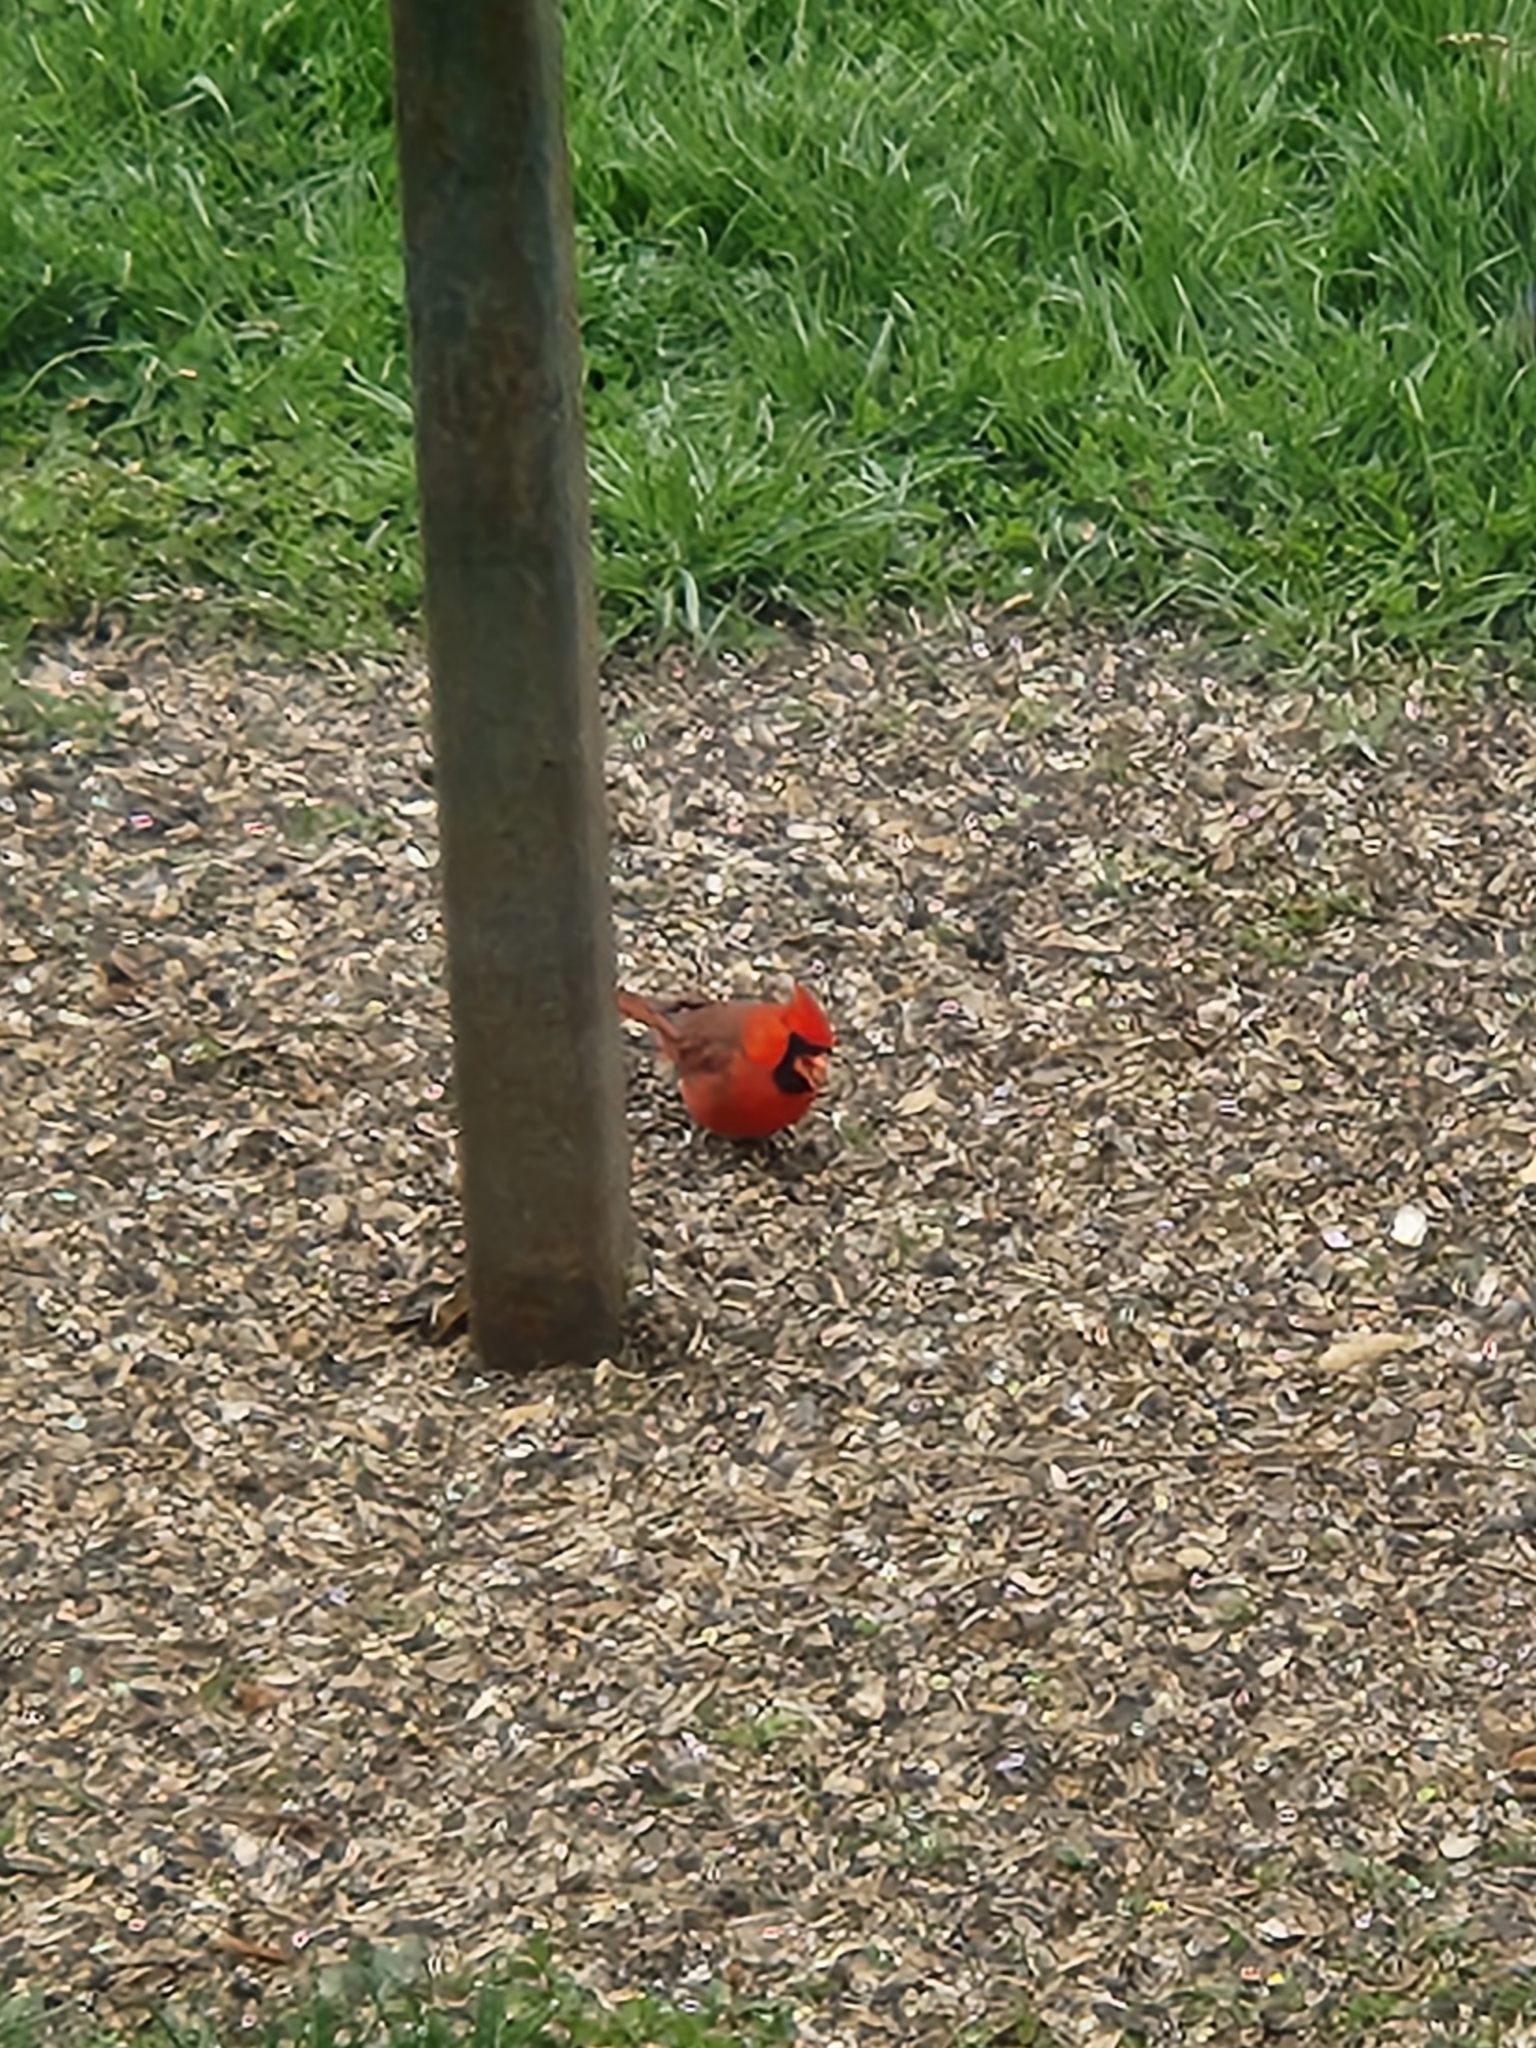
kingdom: Animalia
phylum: Chordata
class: Aves
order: Passeriformes
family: Cardinalidae
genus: Cardinalis
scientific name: Cardinalis cardinalis
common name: Northern cardinal
